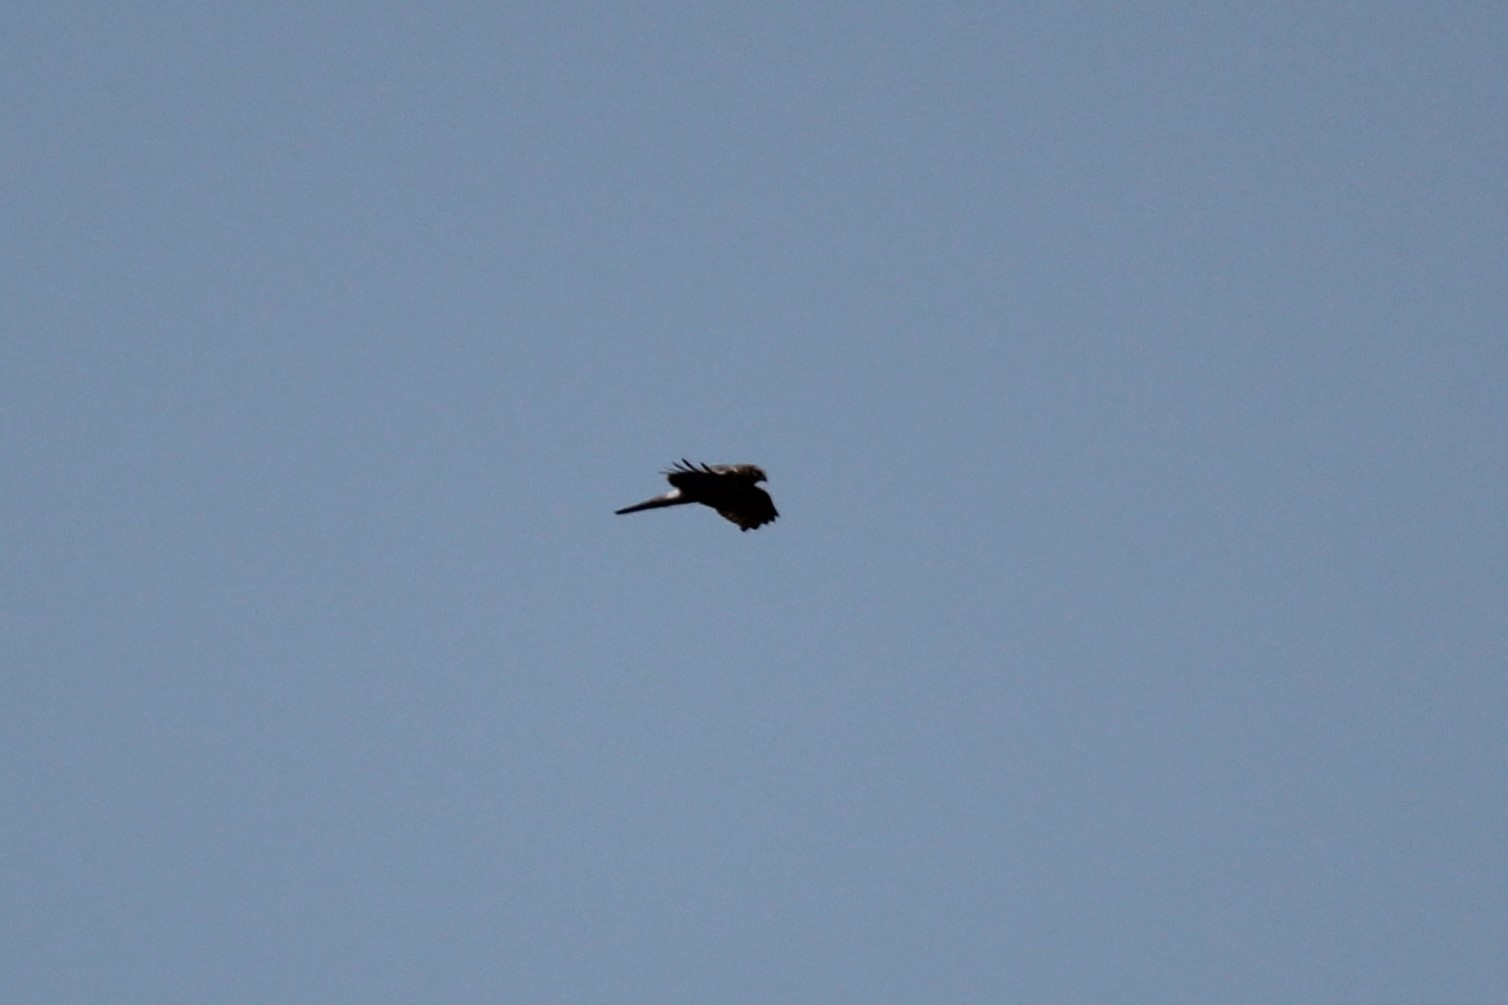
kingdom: Animalia
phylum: Chordata
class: Aves
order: Accipitriformes
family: Accipitridae
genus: Circus
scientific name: Circus cyaneus
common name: Hen harrier
